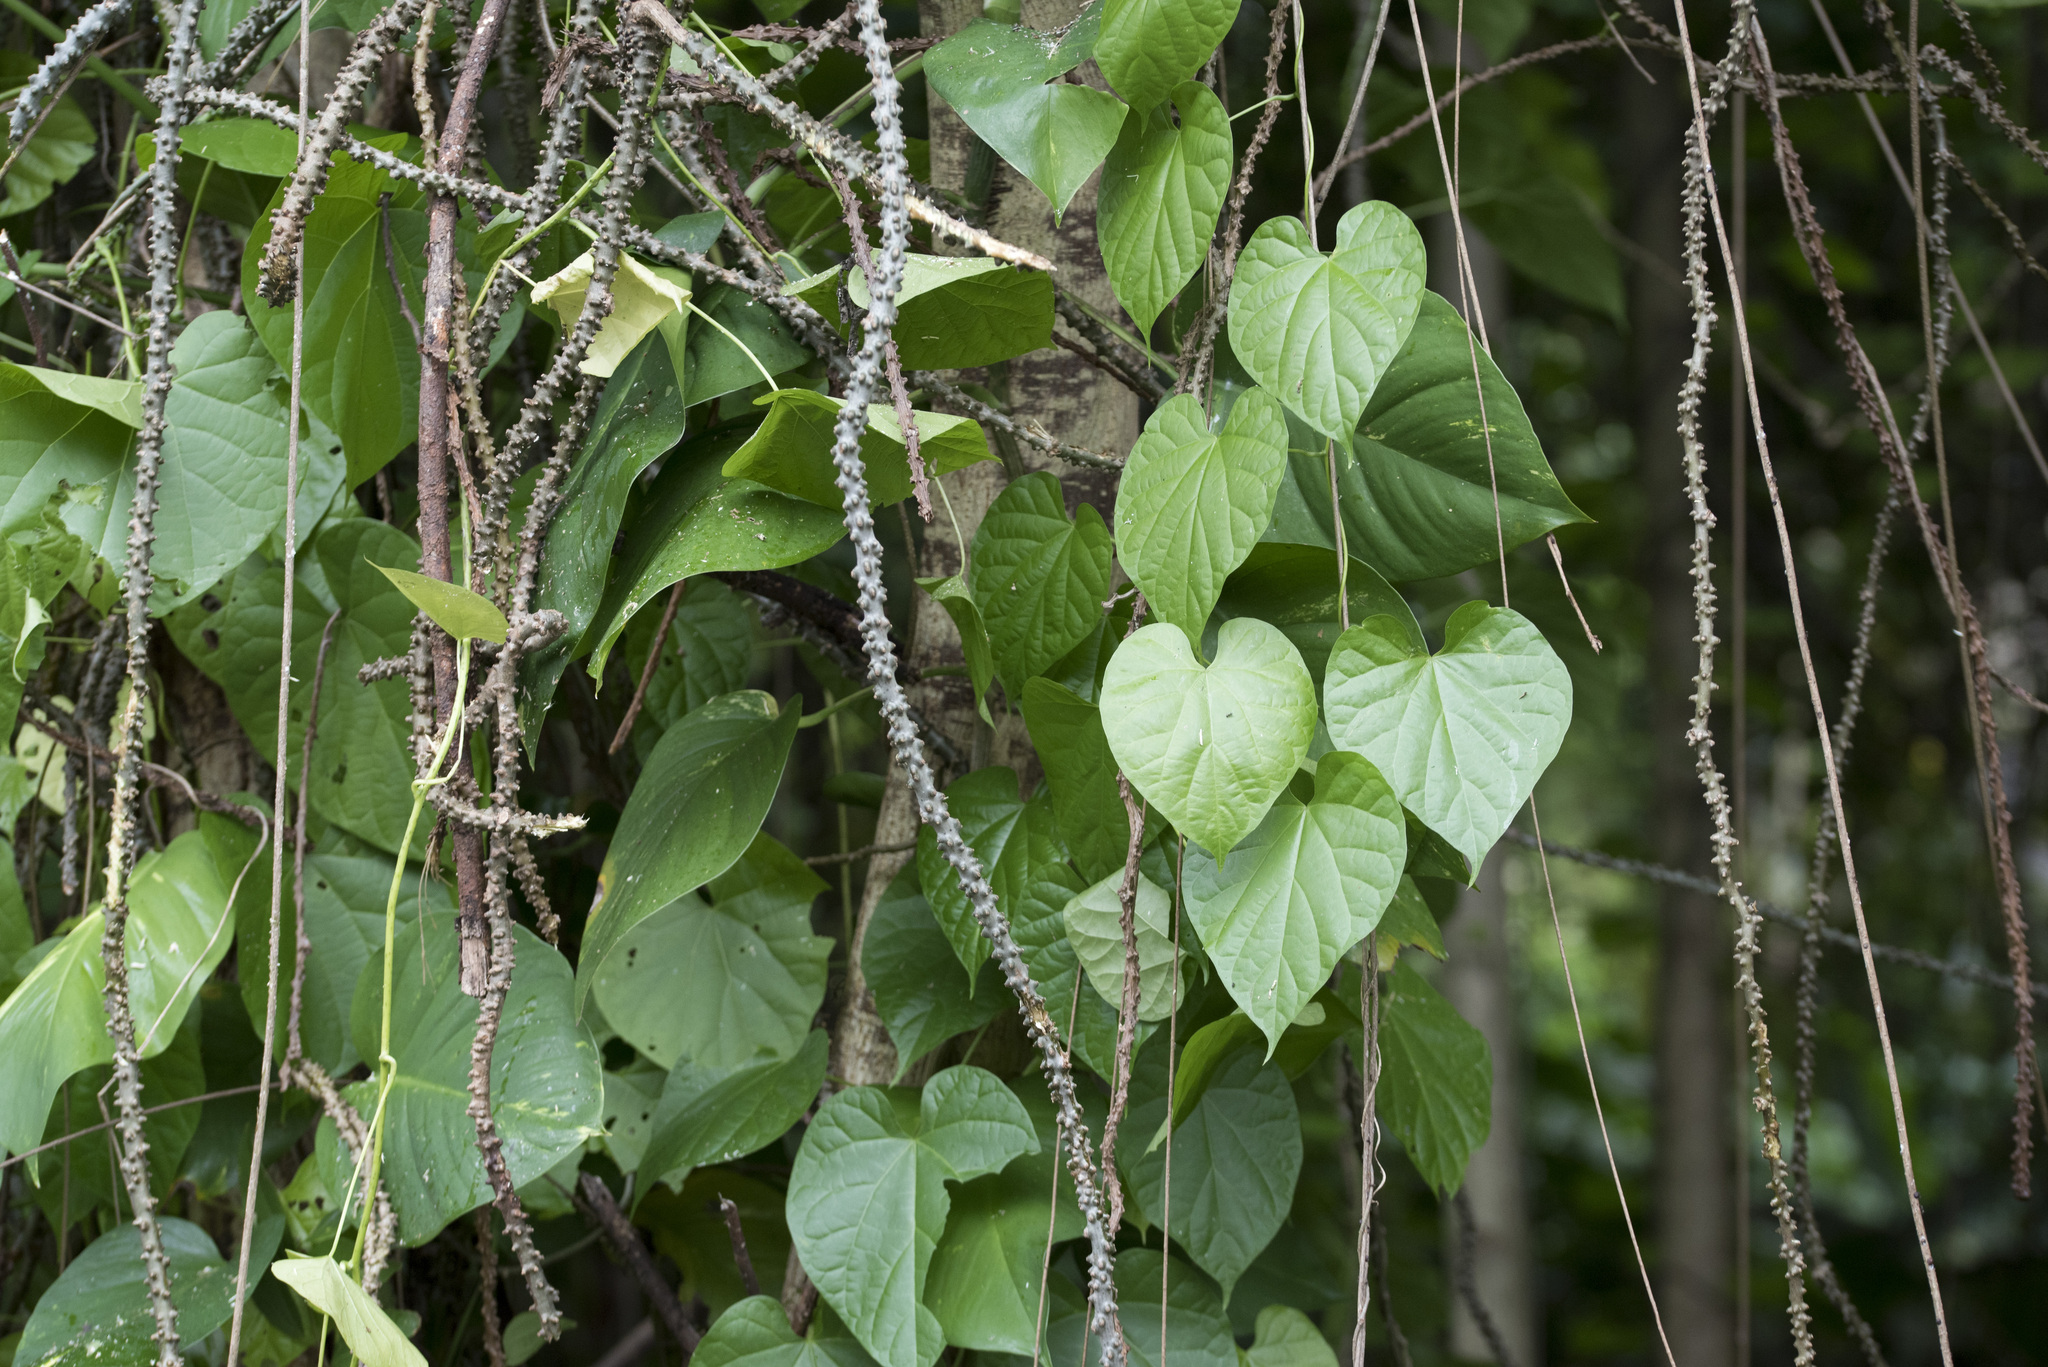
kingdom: Plantae
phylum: Tracheophyta
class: Magnoliopsida
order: Ranunculales
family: Menispermaceae
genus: Tinospora
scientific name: Tinospora crispa
